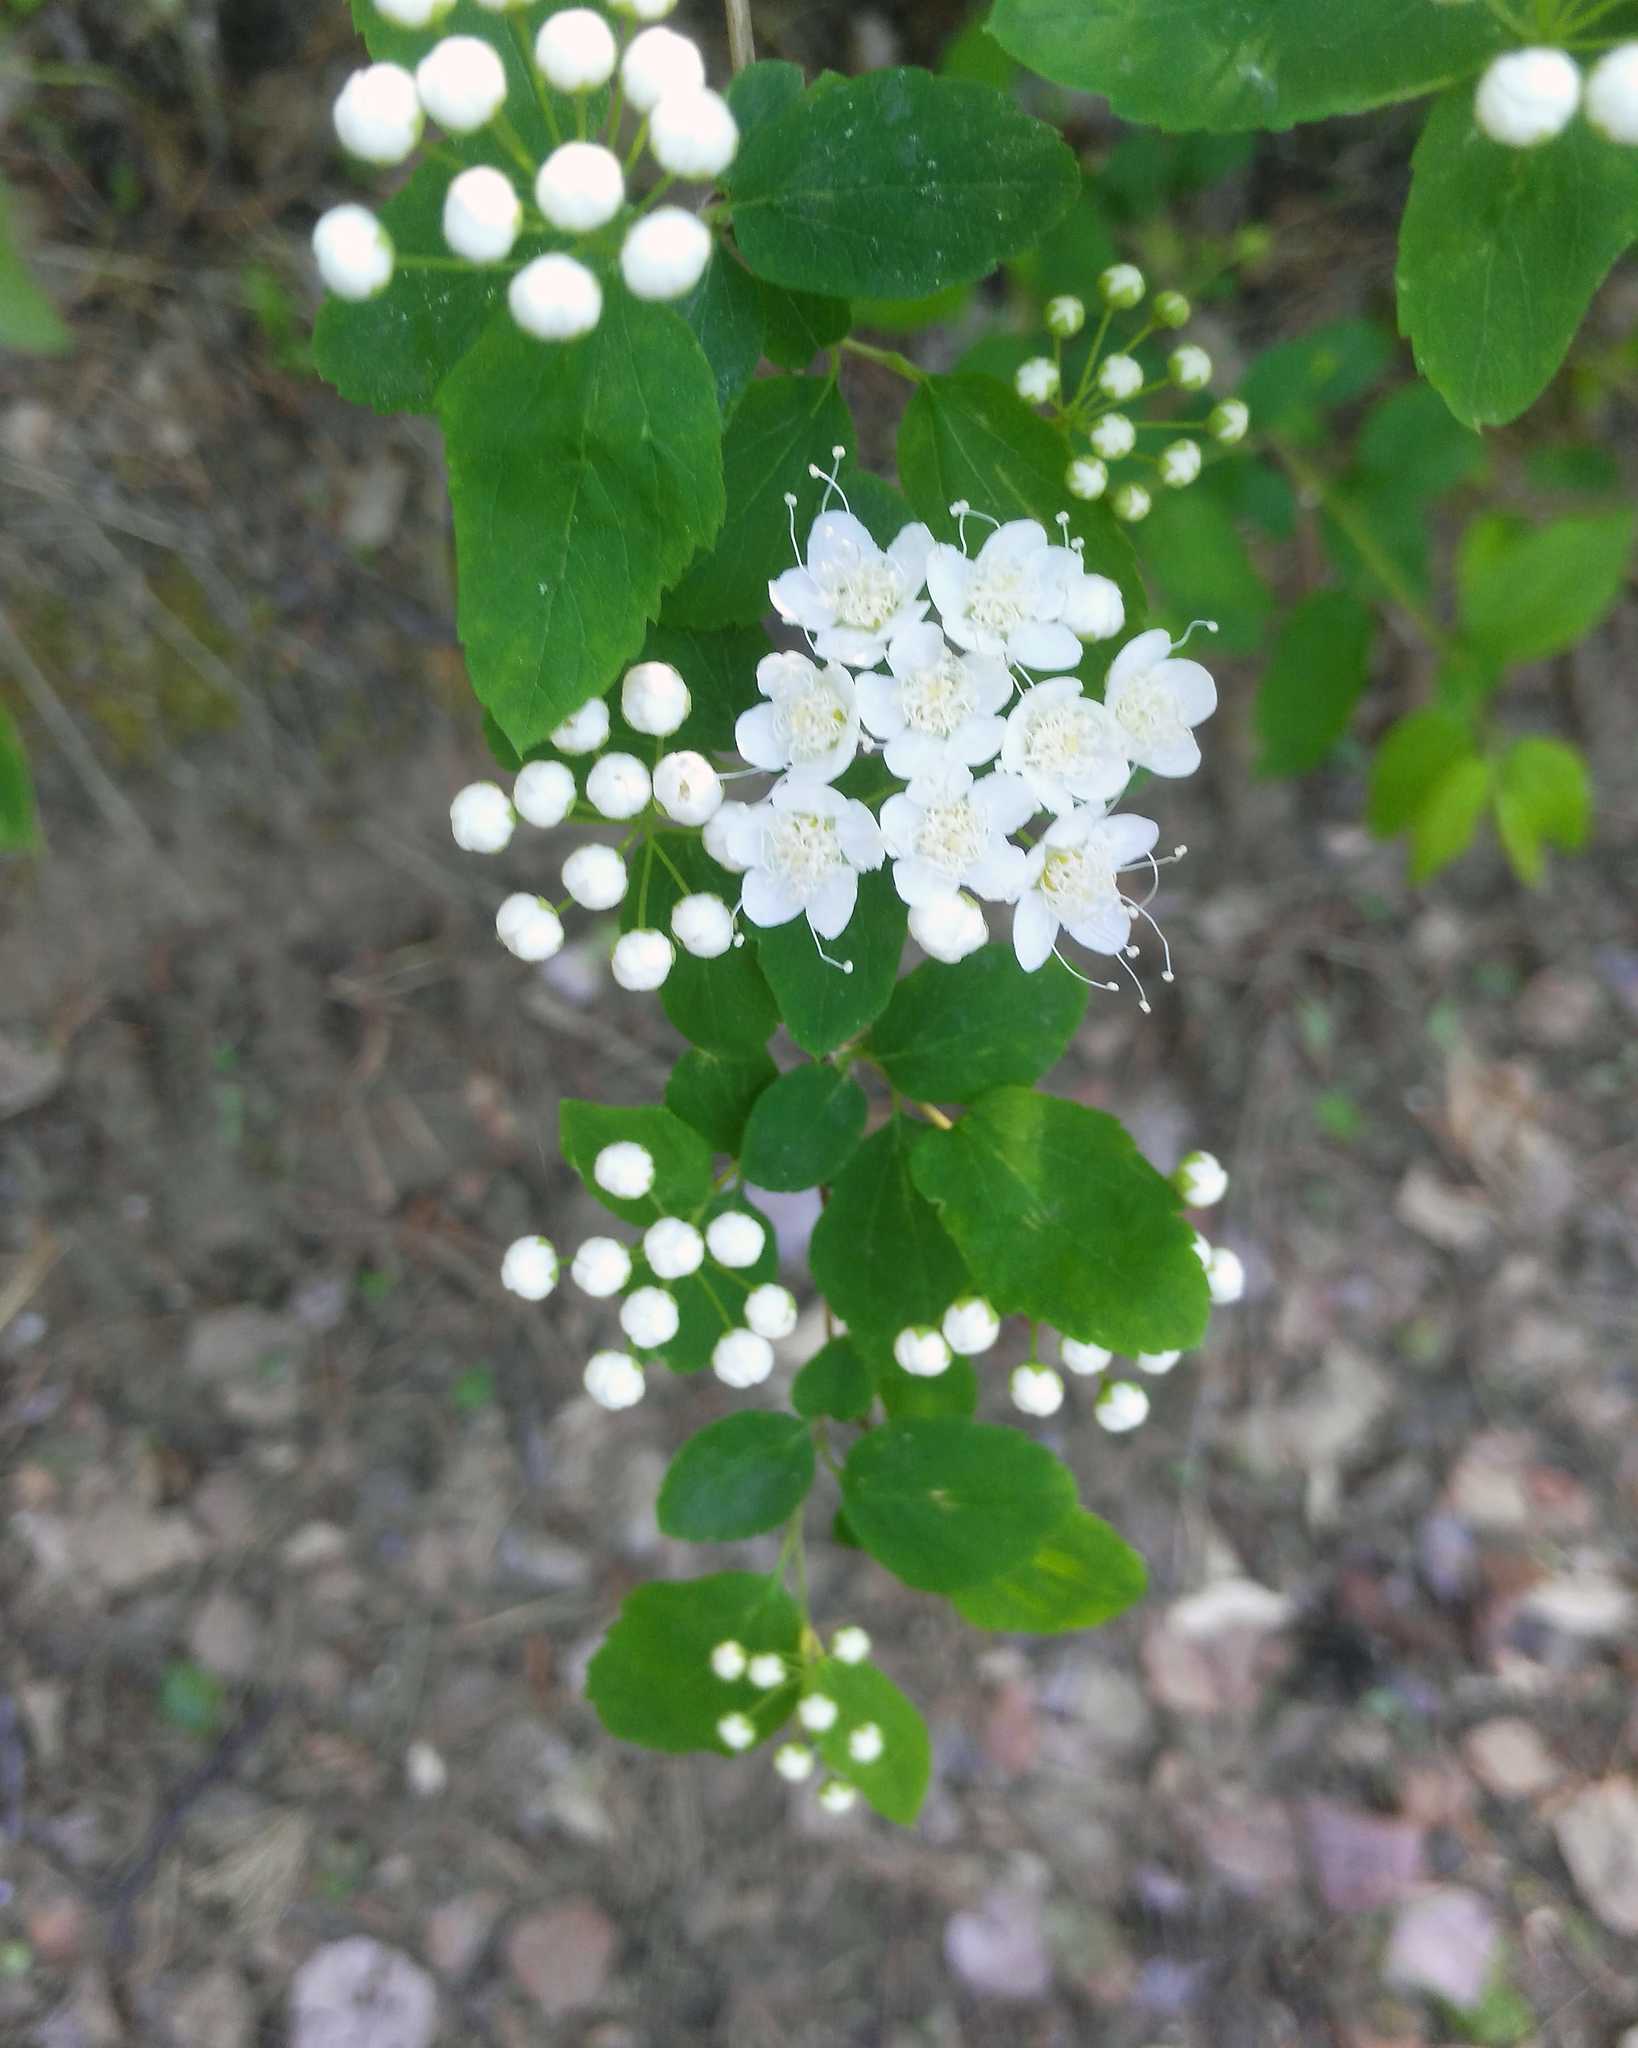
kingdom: Plantae
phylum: Tracheophyta
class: Magnoliopsida
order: Rosales
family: Rosaceae
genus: Spiraea
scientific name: Spiraea media
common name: Russian spiraea
